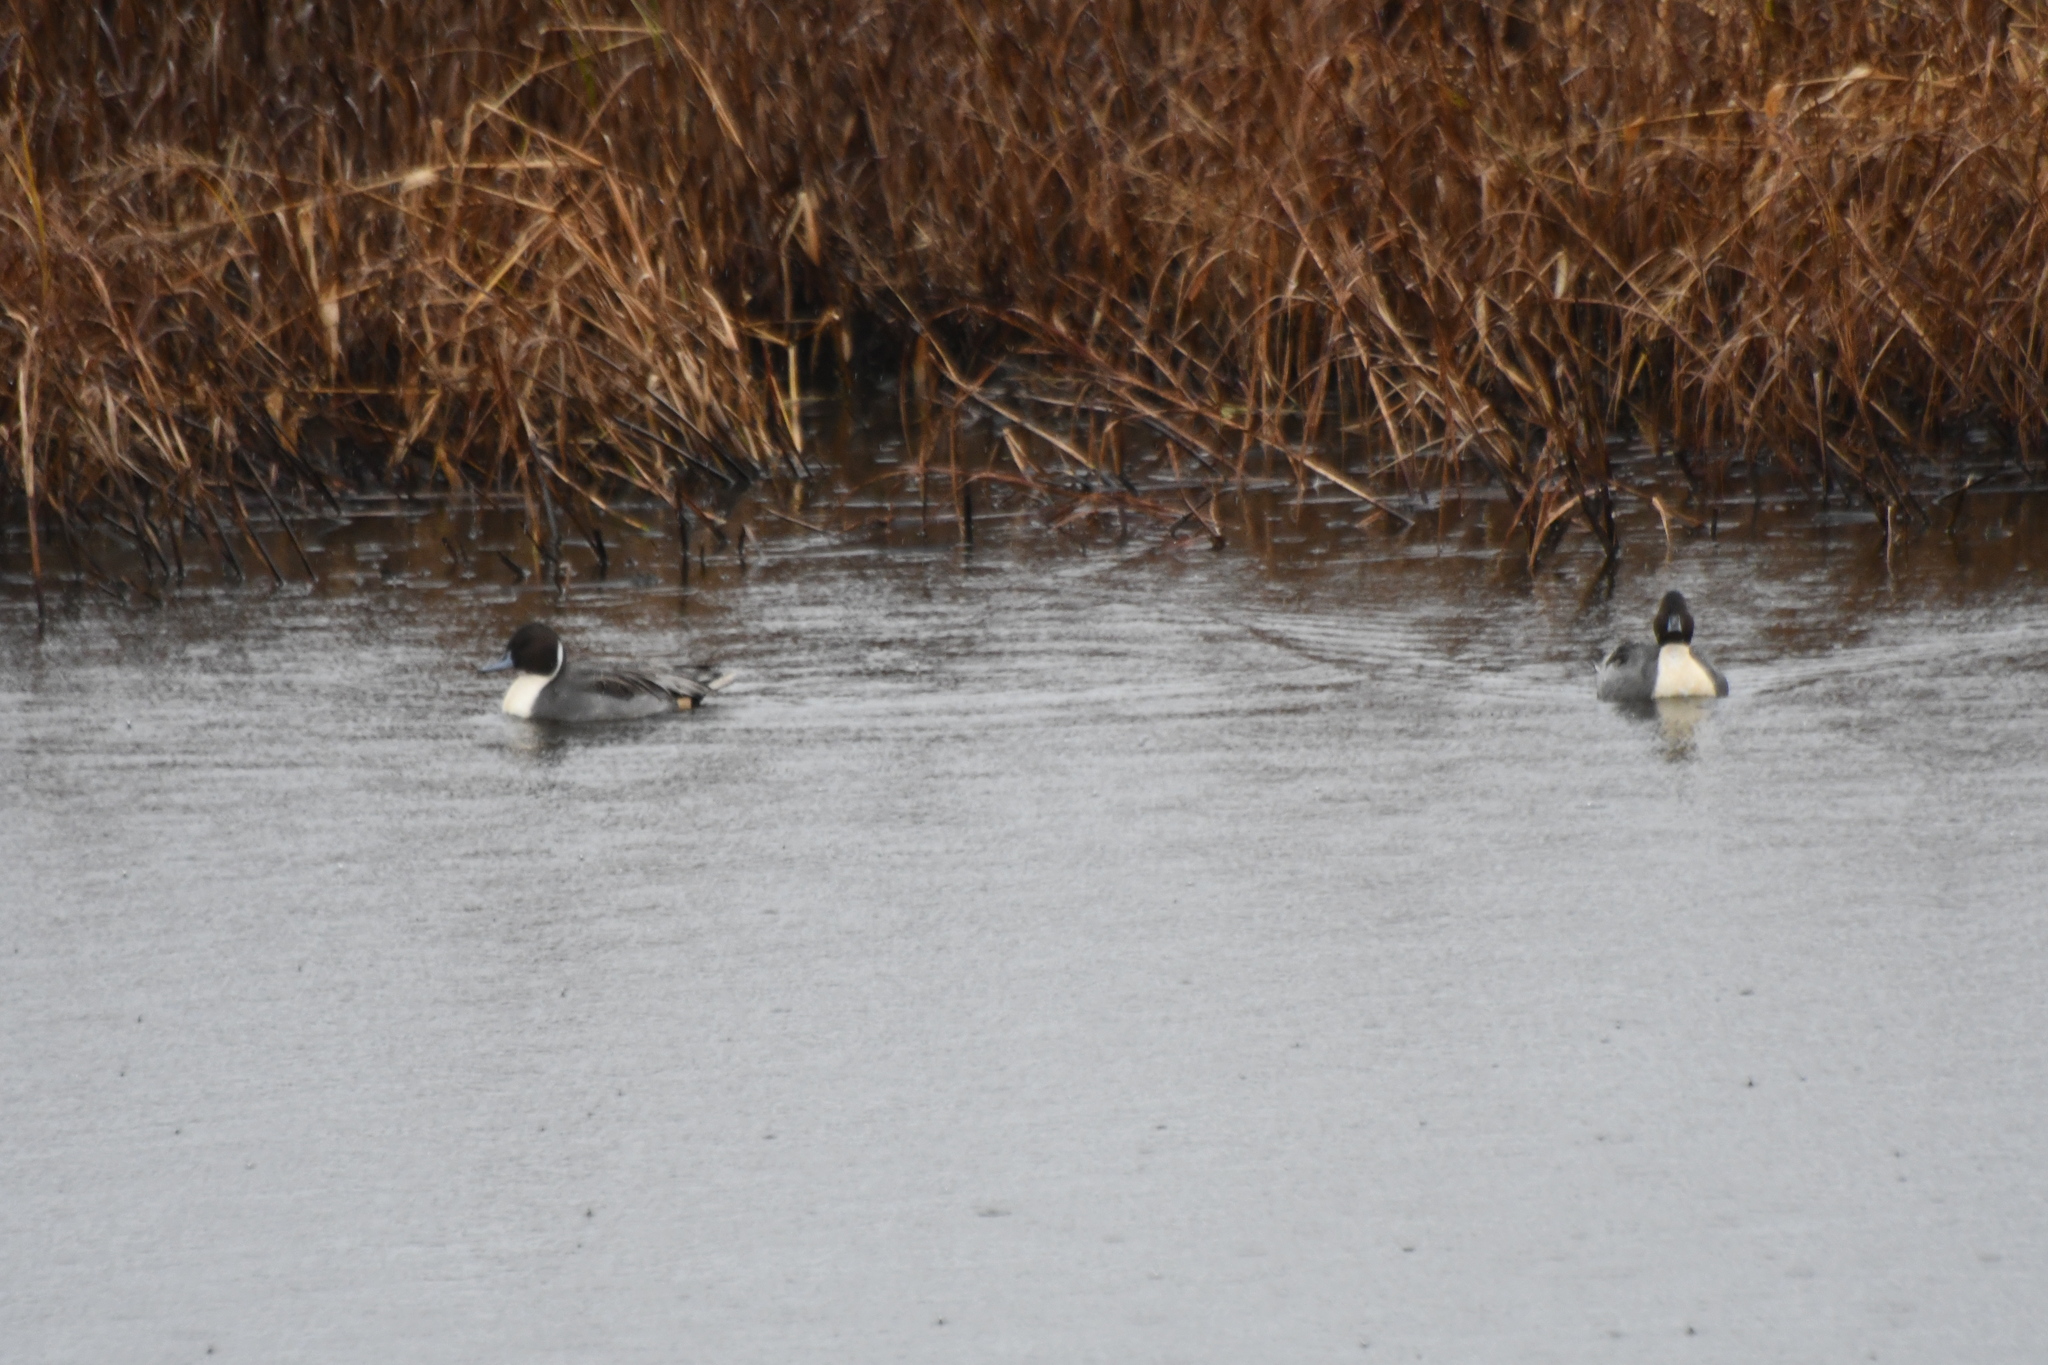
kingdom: Animalia
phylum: Chordata
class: Aves
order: Anseriformes
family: Anatidae
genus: Anas
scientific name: Anas acuta
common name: Northern pintail
